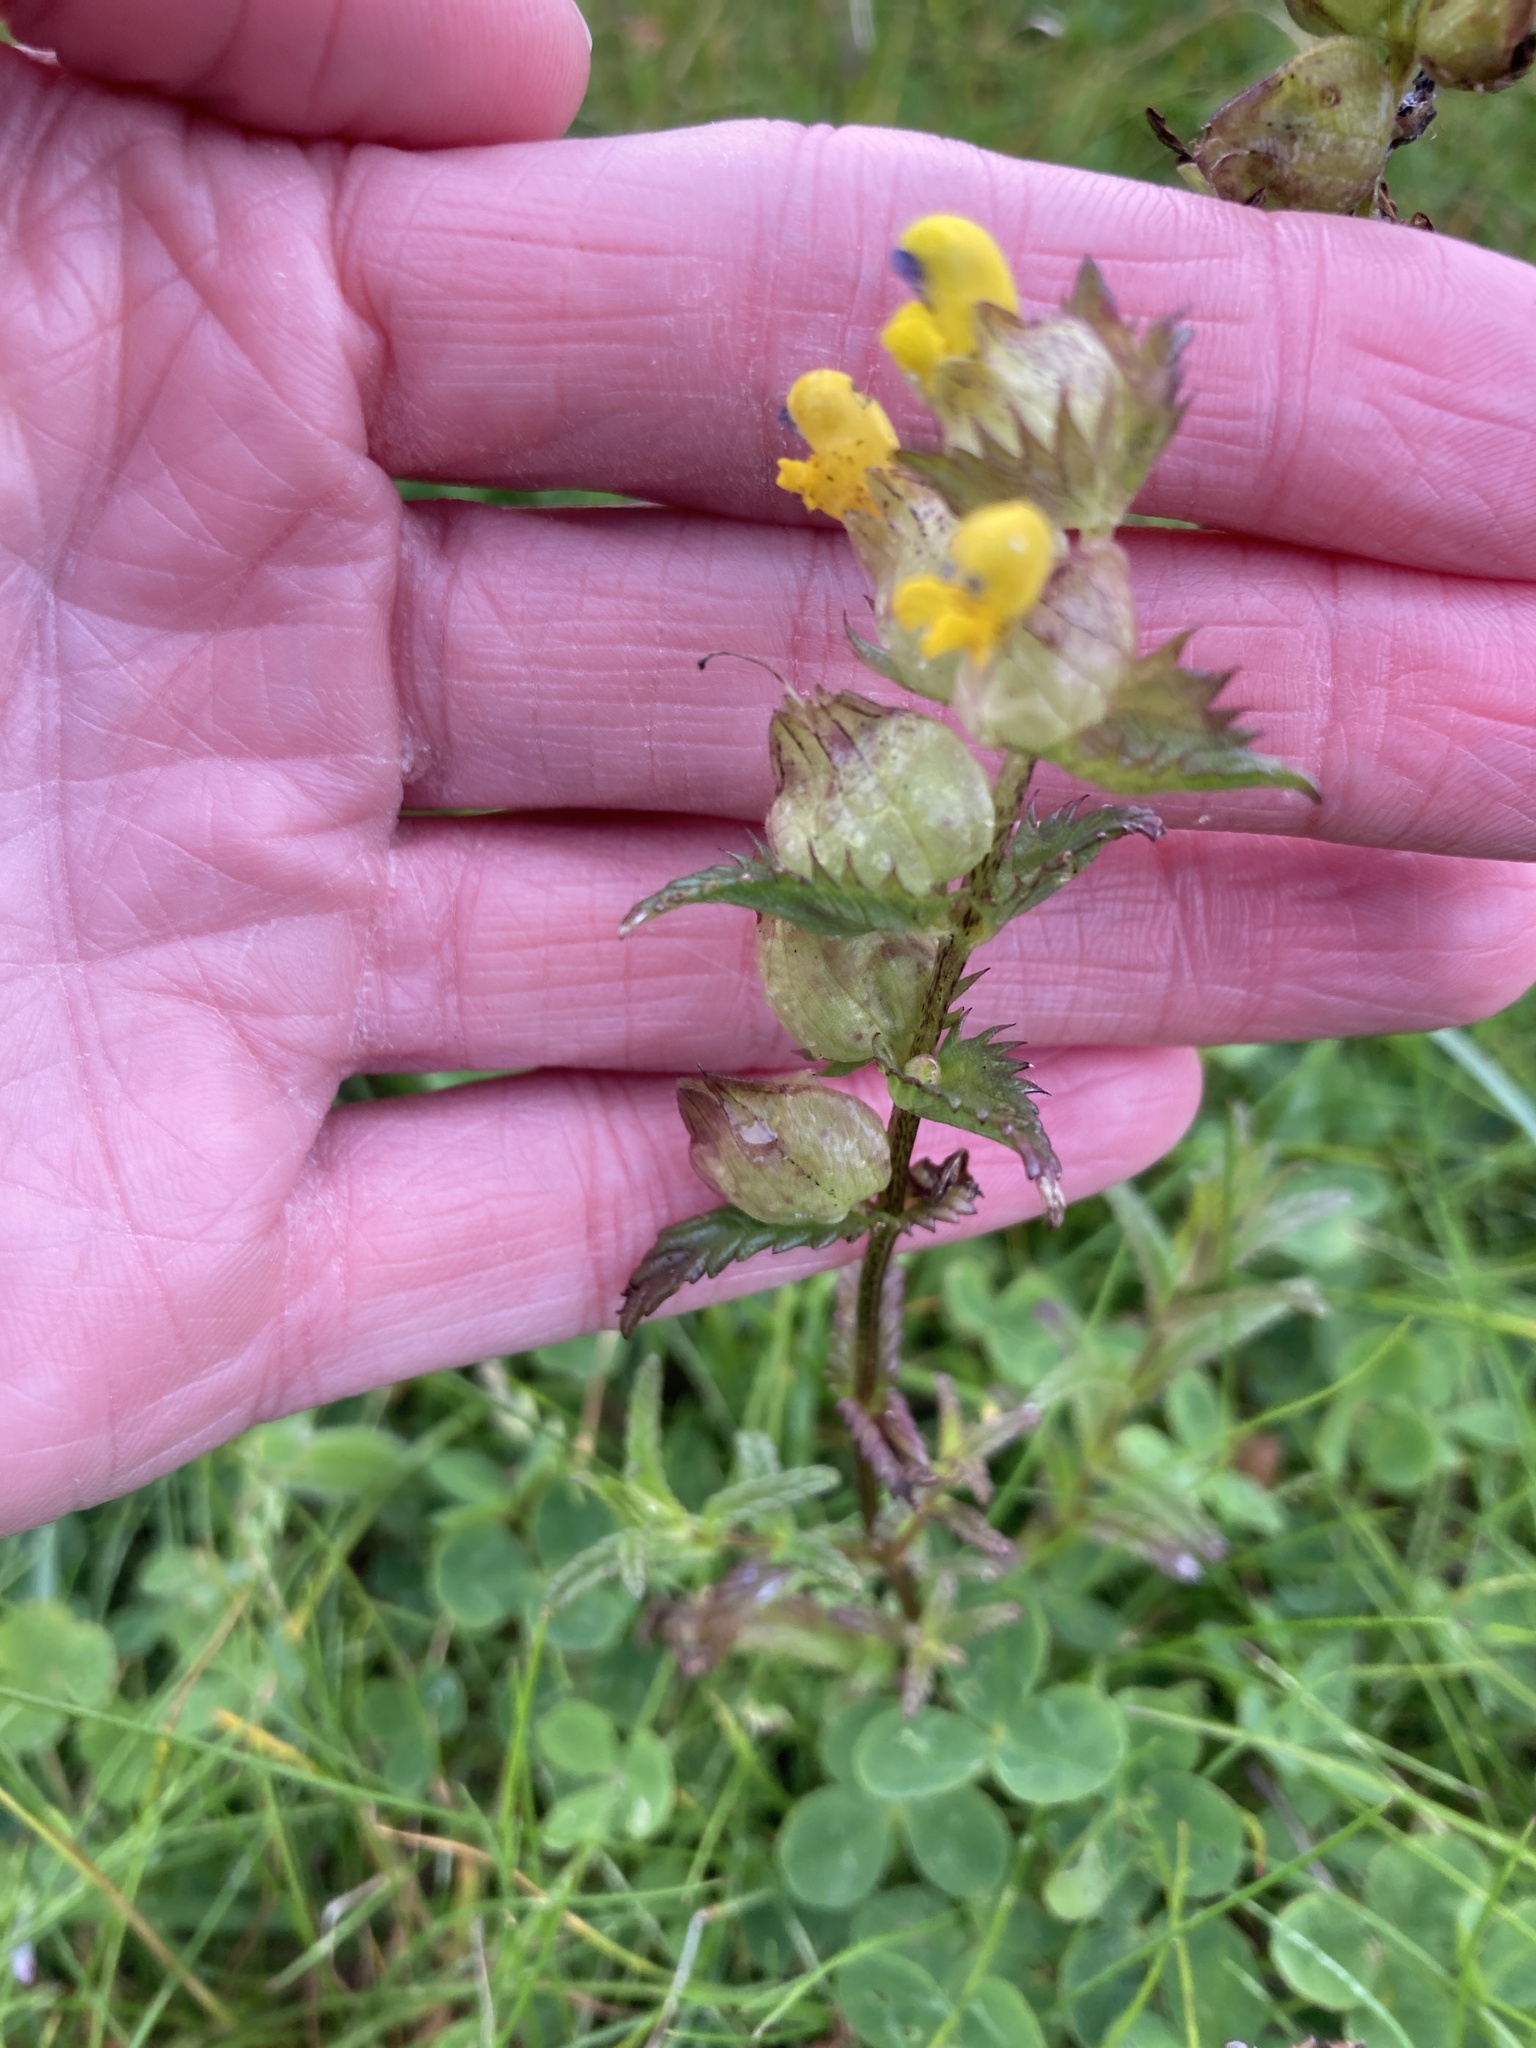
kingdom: Plantae
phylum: Tracheophyta
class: Magnoliopsida
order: Lamiales
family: Orobanchaceae
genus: Rhinanthus
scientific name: Rhinanthus minor
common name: Yellow-rattle
